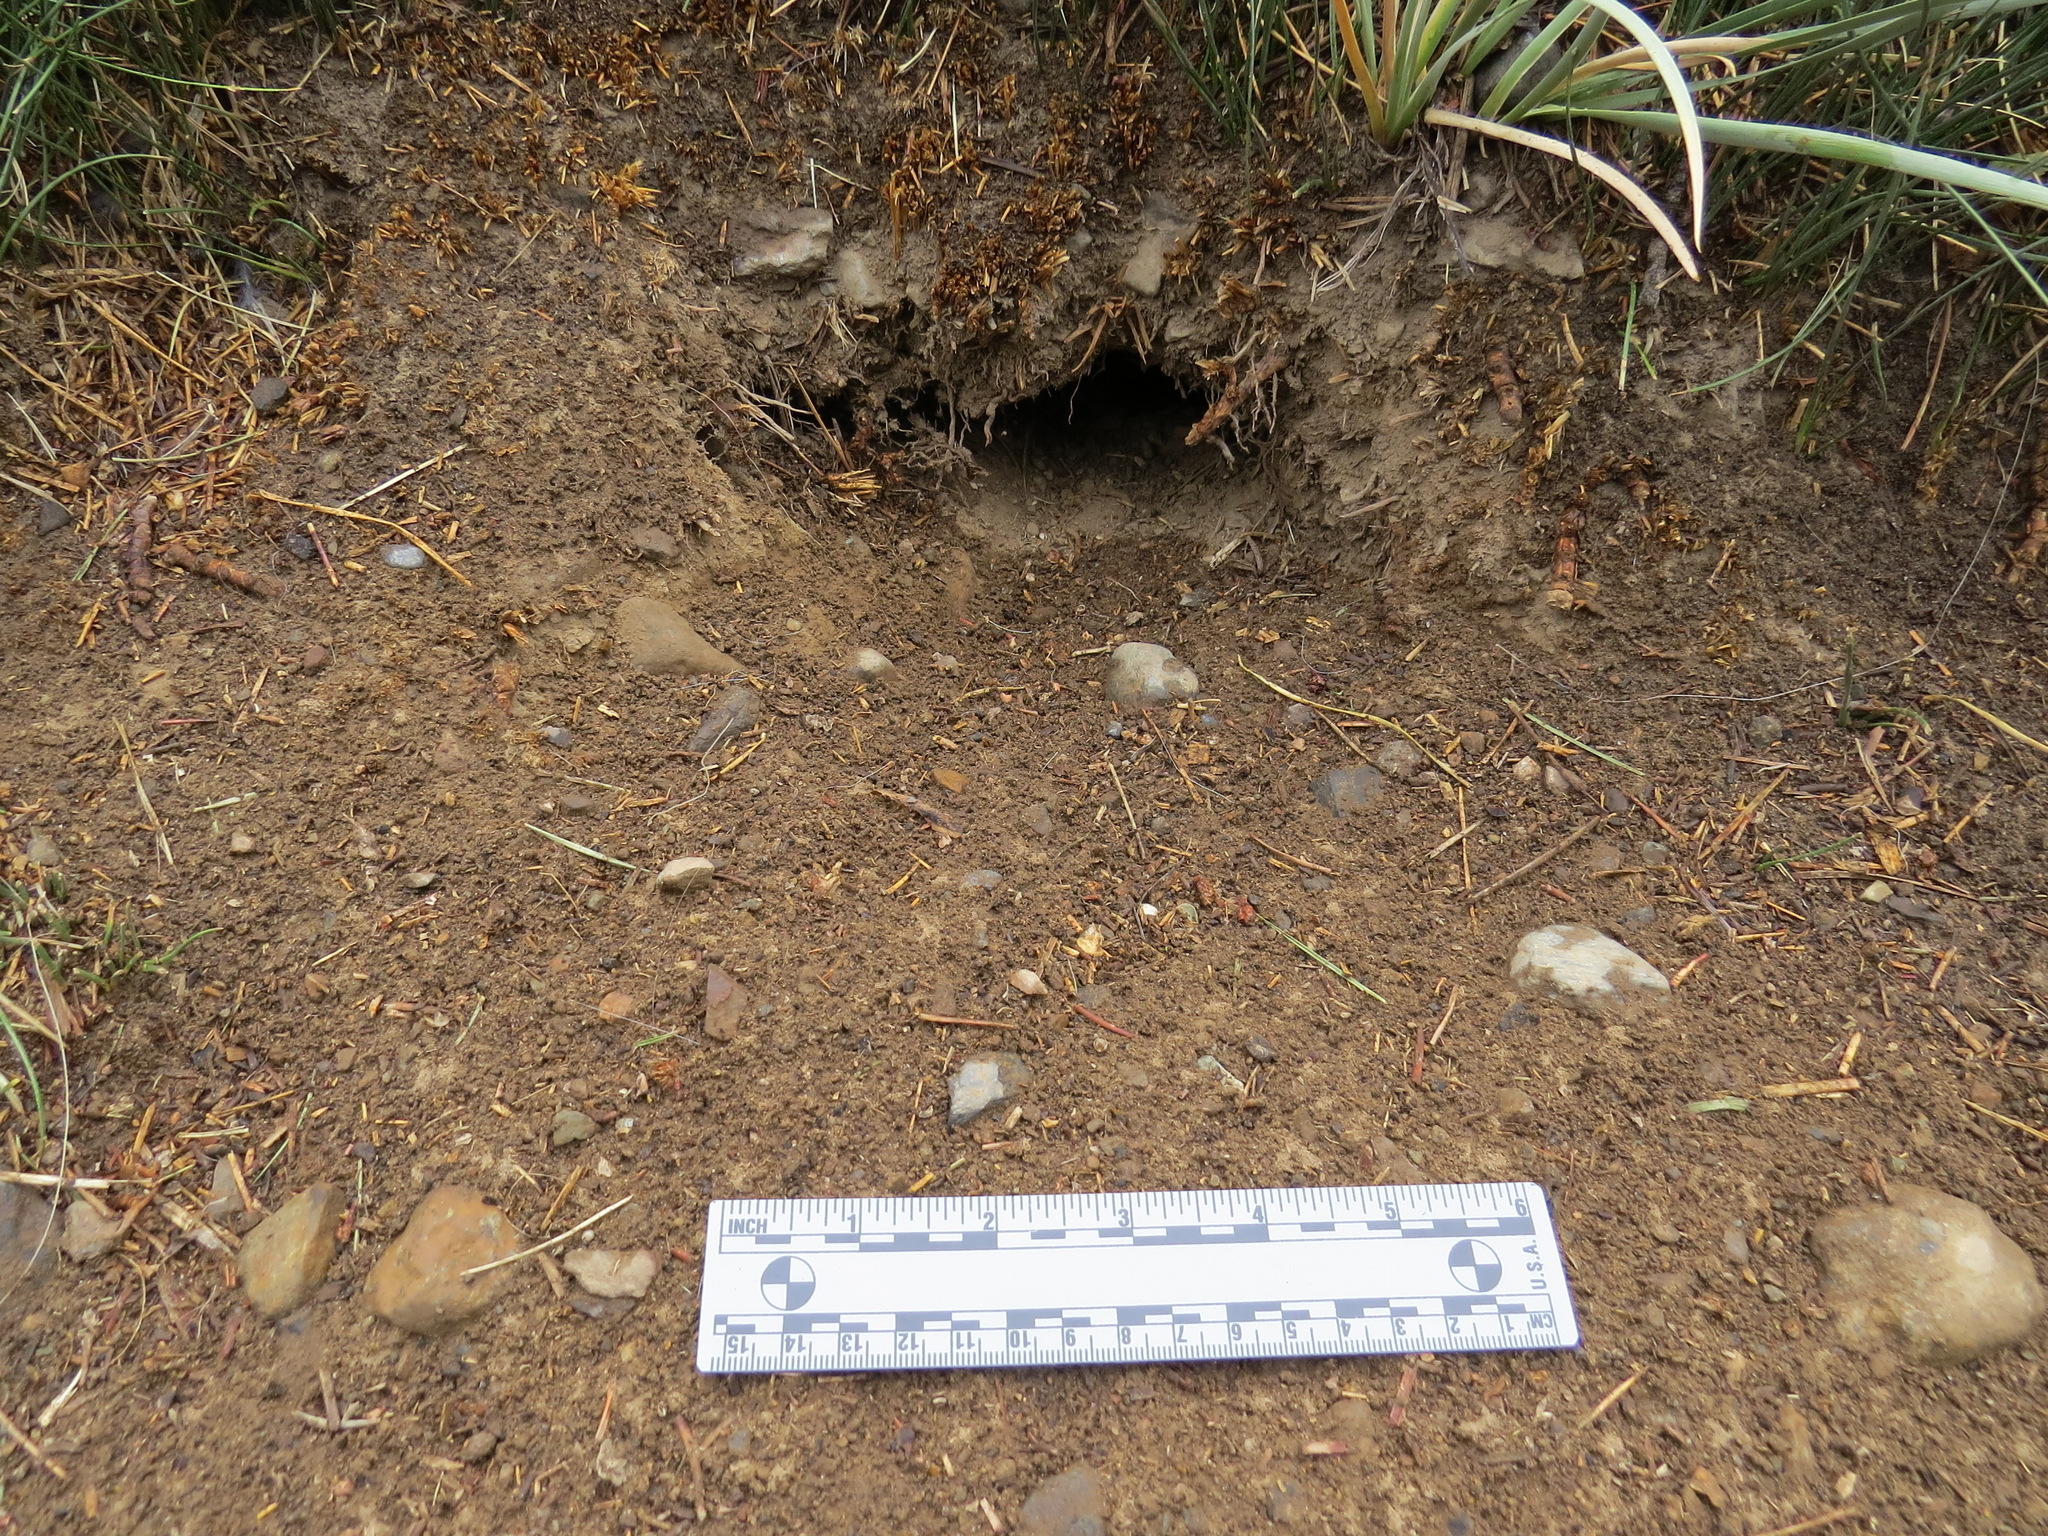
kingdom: Animalia
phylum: Chordata
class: Mammalia
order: Rodentia
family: Sciuridae
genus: Urocitellus
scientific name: Urocitellus beldingi
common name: Belding's ground squirrel
